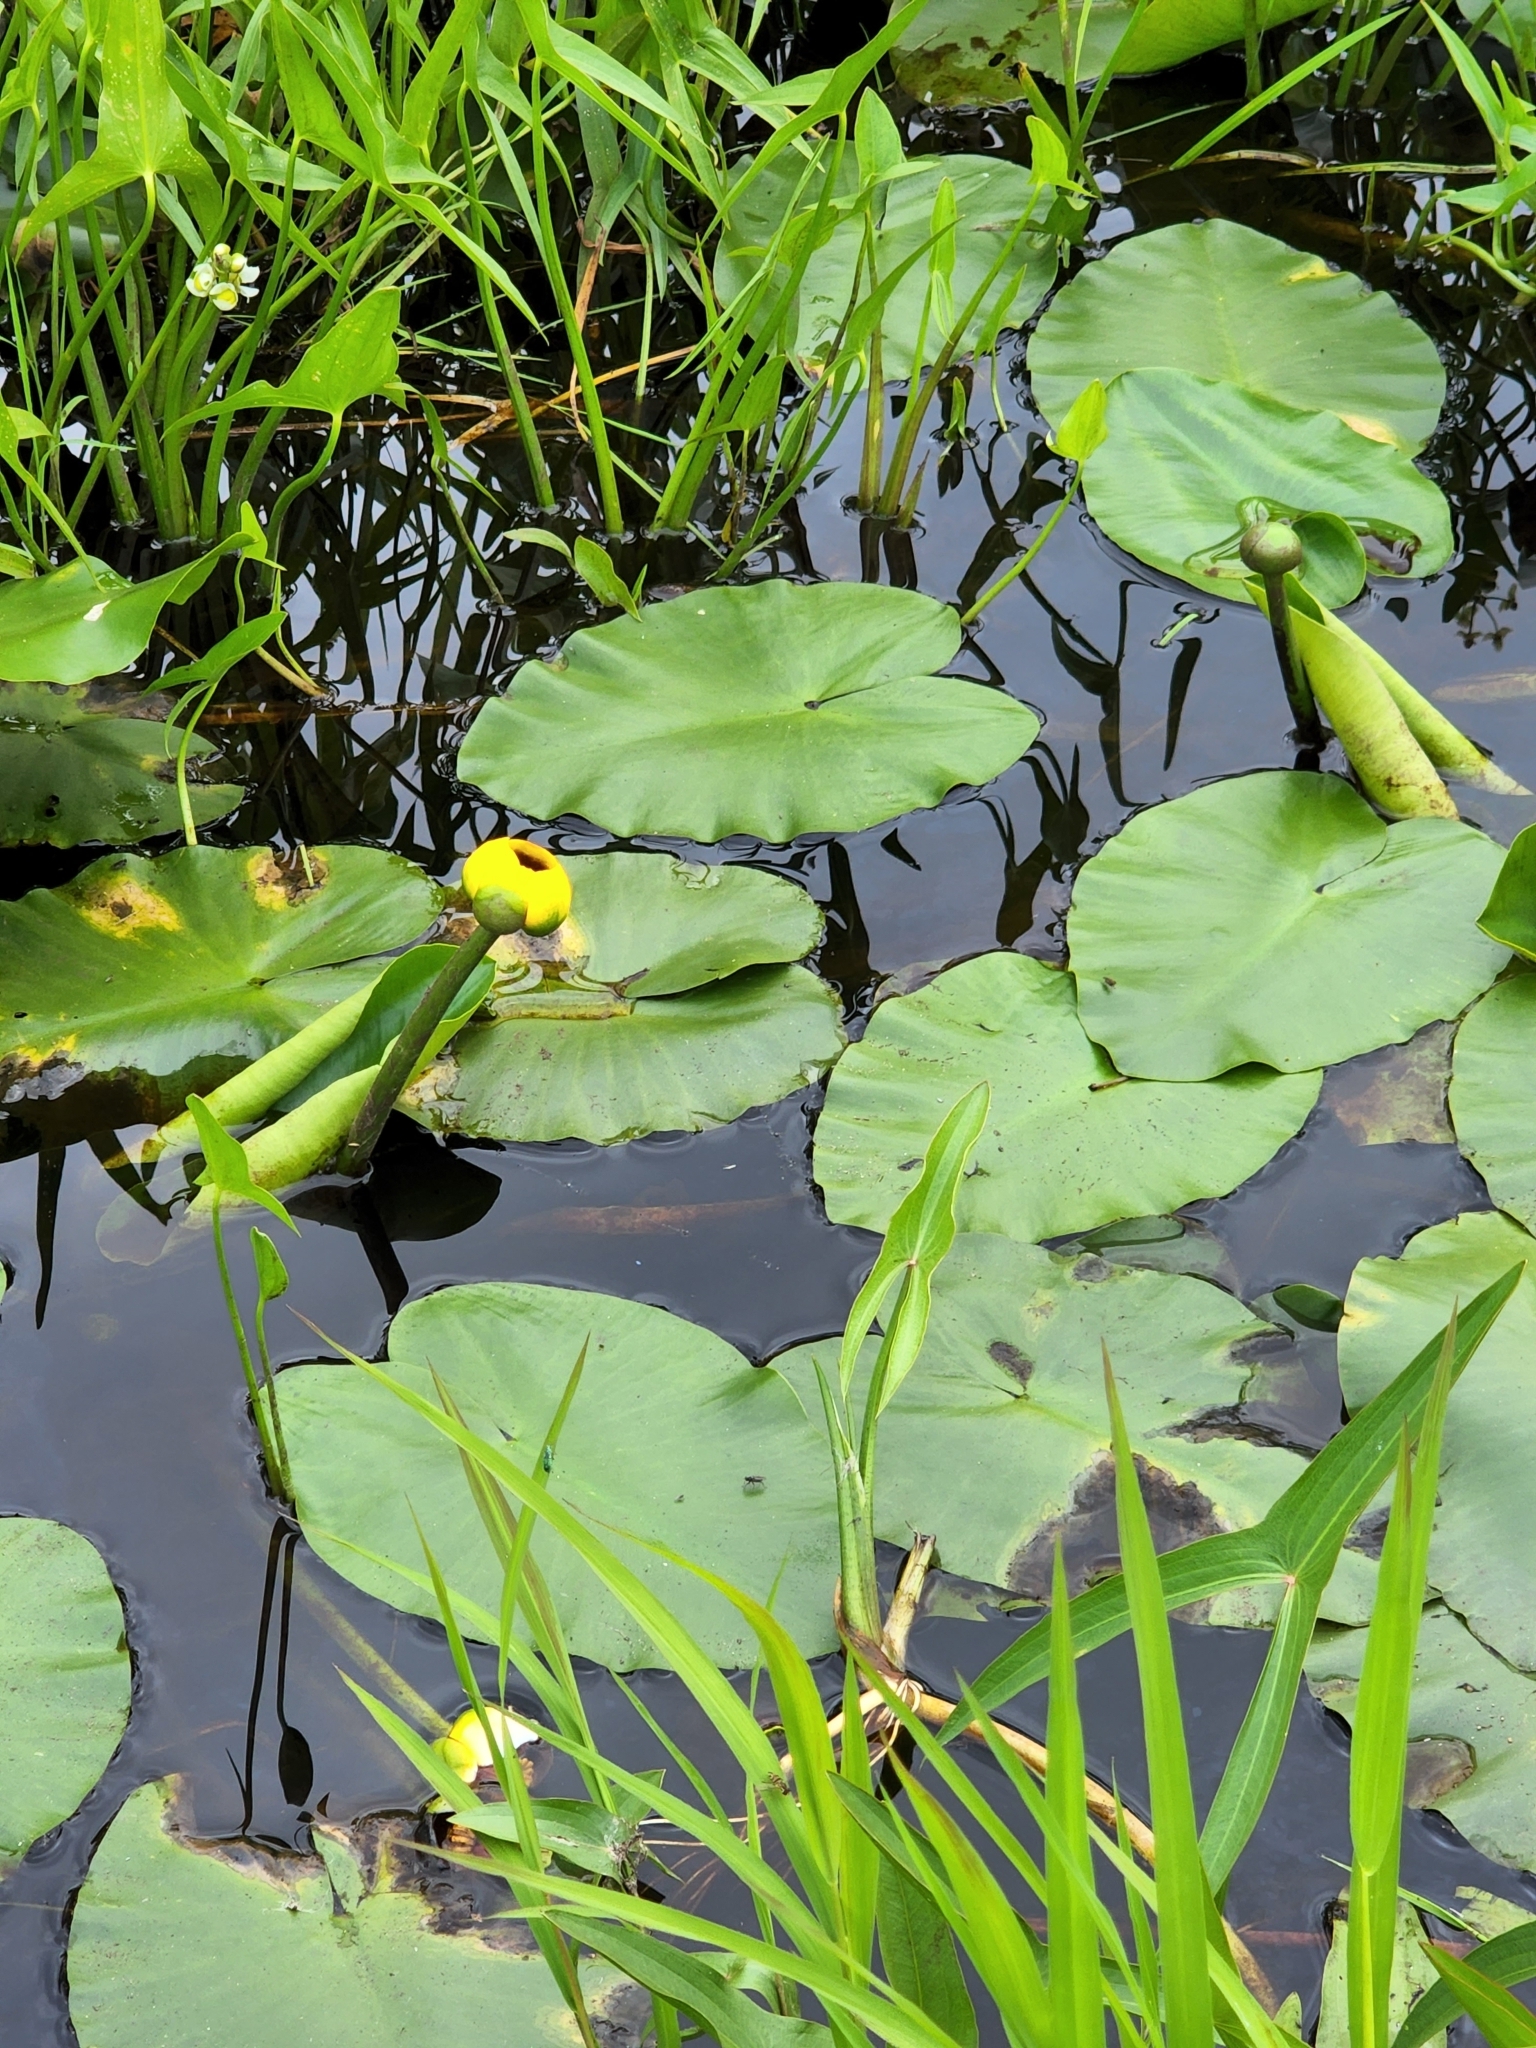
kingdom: Plantae
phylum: Tracheophyta
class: Magnoliopsida
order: Nymphaeales
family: Nymphaeaceae
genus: Nuphar
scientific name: Nuphar variegata
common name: Beaver-root
